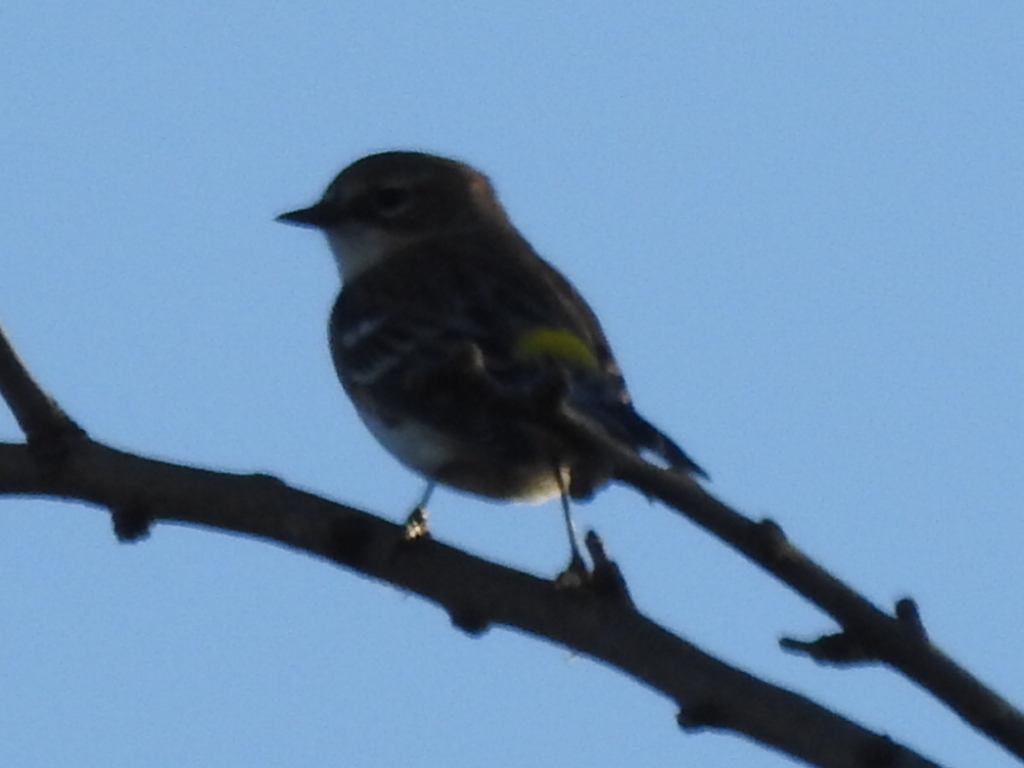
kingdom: Animalia
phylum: Chordata
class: Aves
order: Passeriformes
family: Parulidae
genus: Setophaga
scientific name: Setophaga coronata
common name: Myrtle warbler
